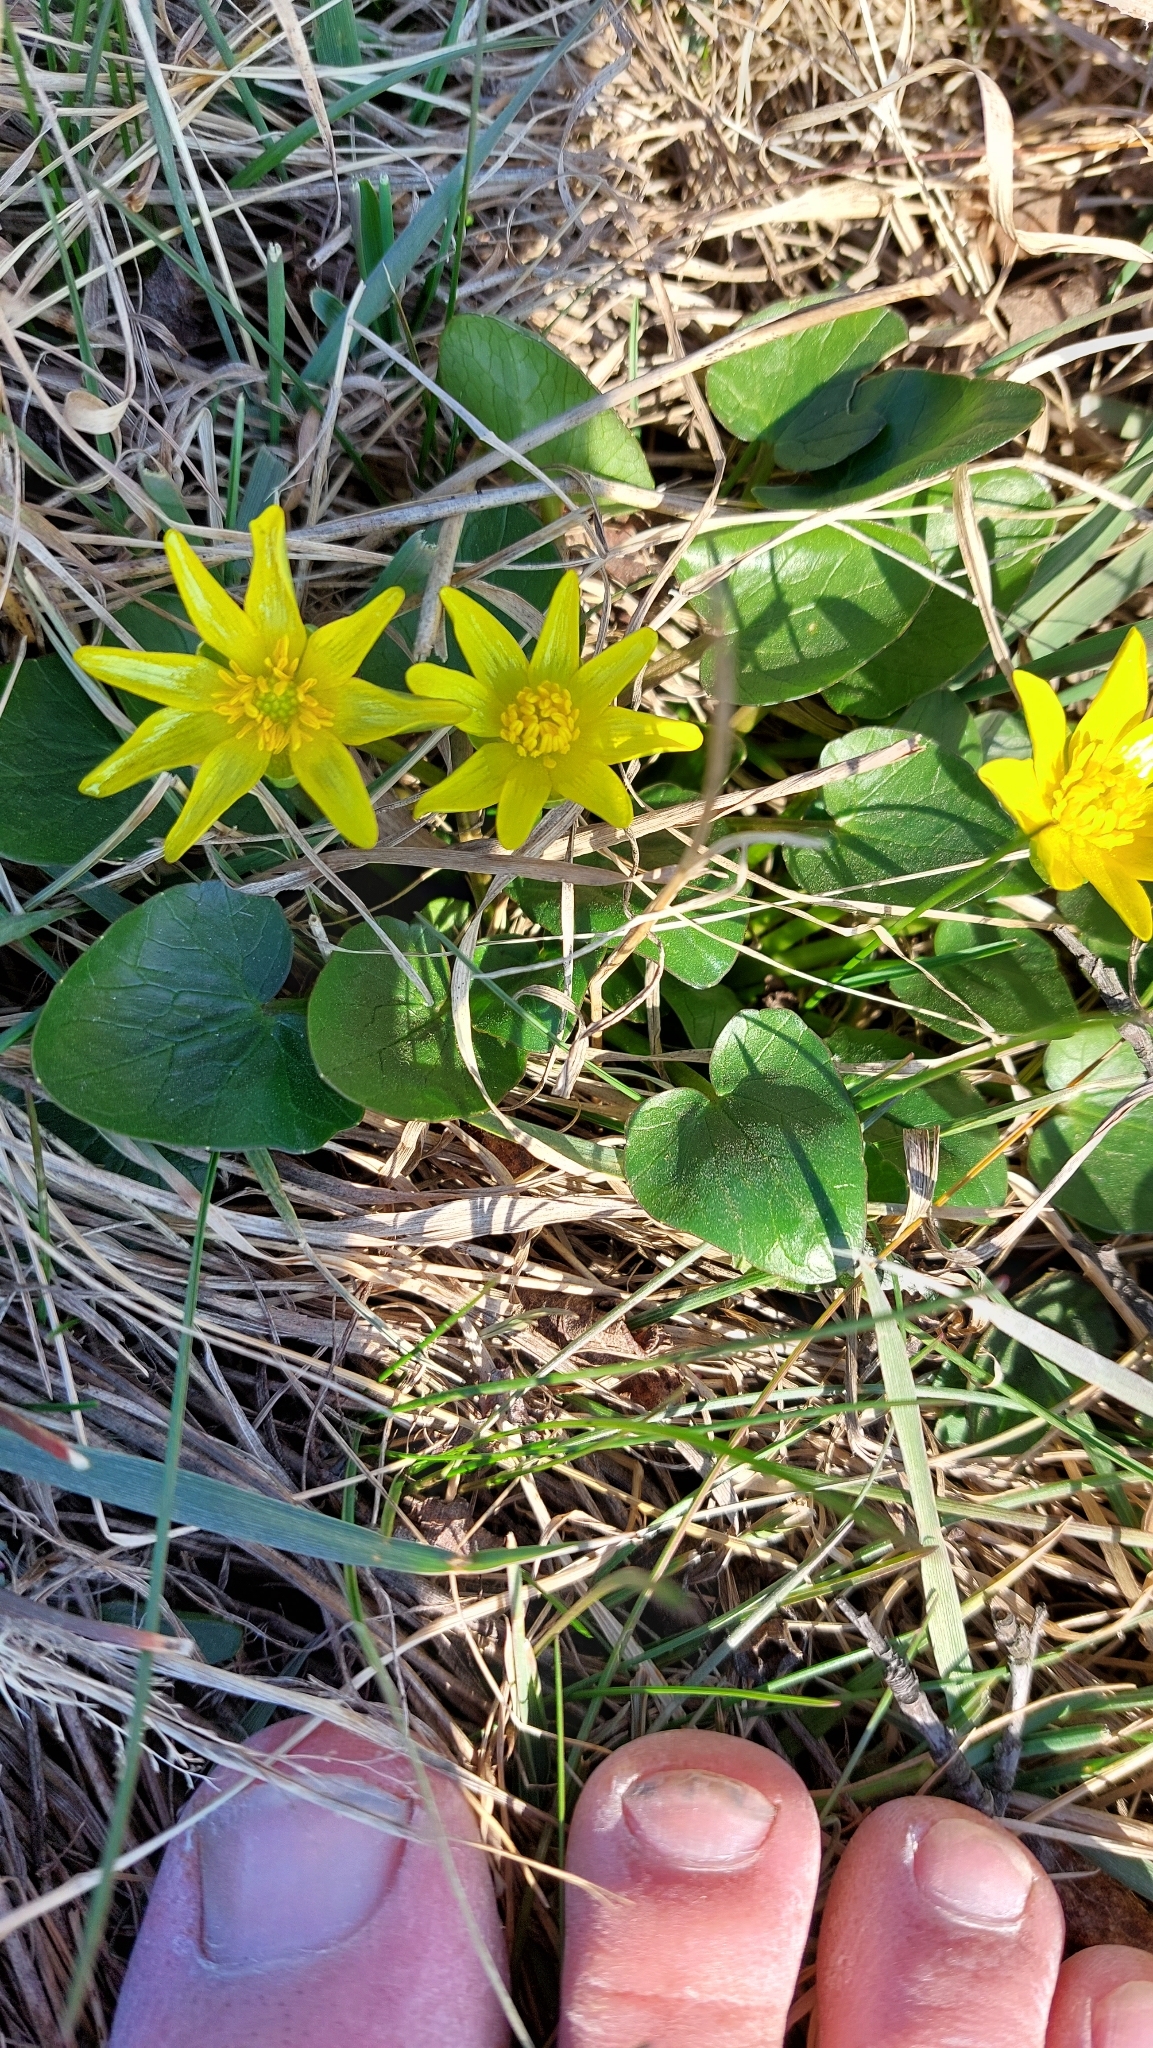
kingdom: Plantae
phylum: Tracheophyta
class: Magnoliopsida
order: Ranunculales
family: Ranunculaceae
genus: Ficaria
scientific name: Ficaria verna
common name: Lesser celandine
